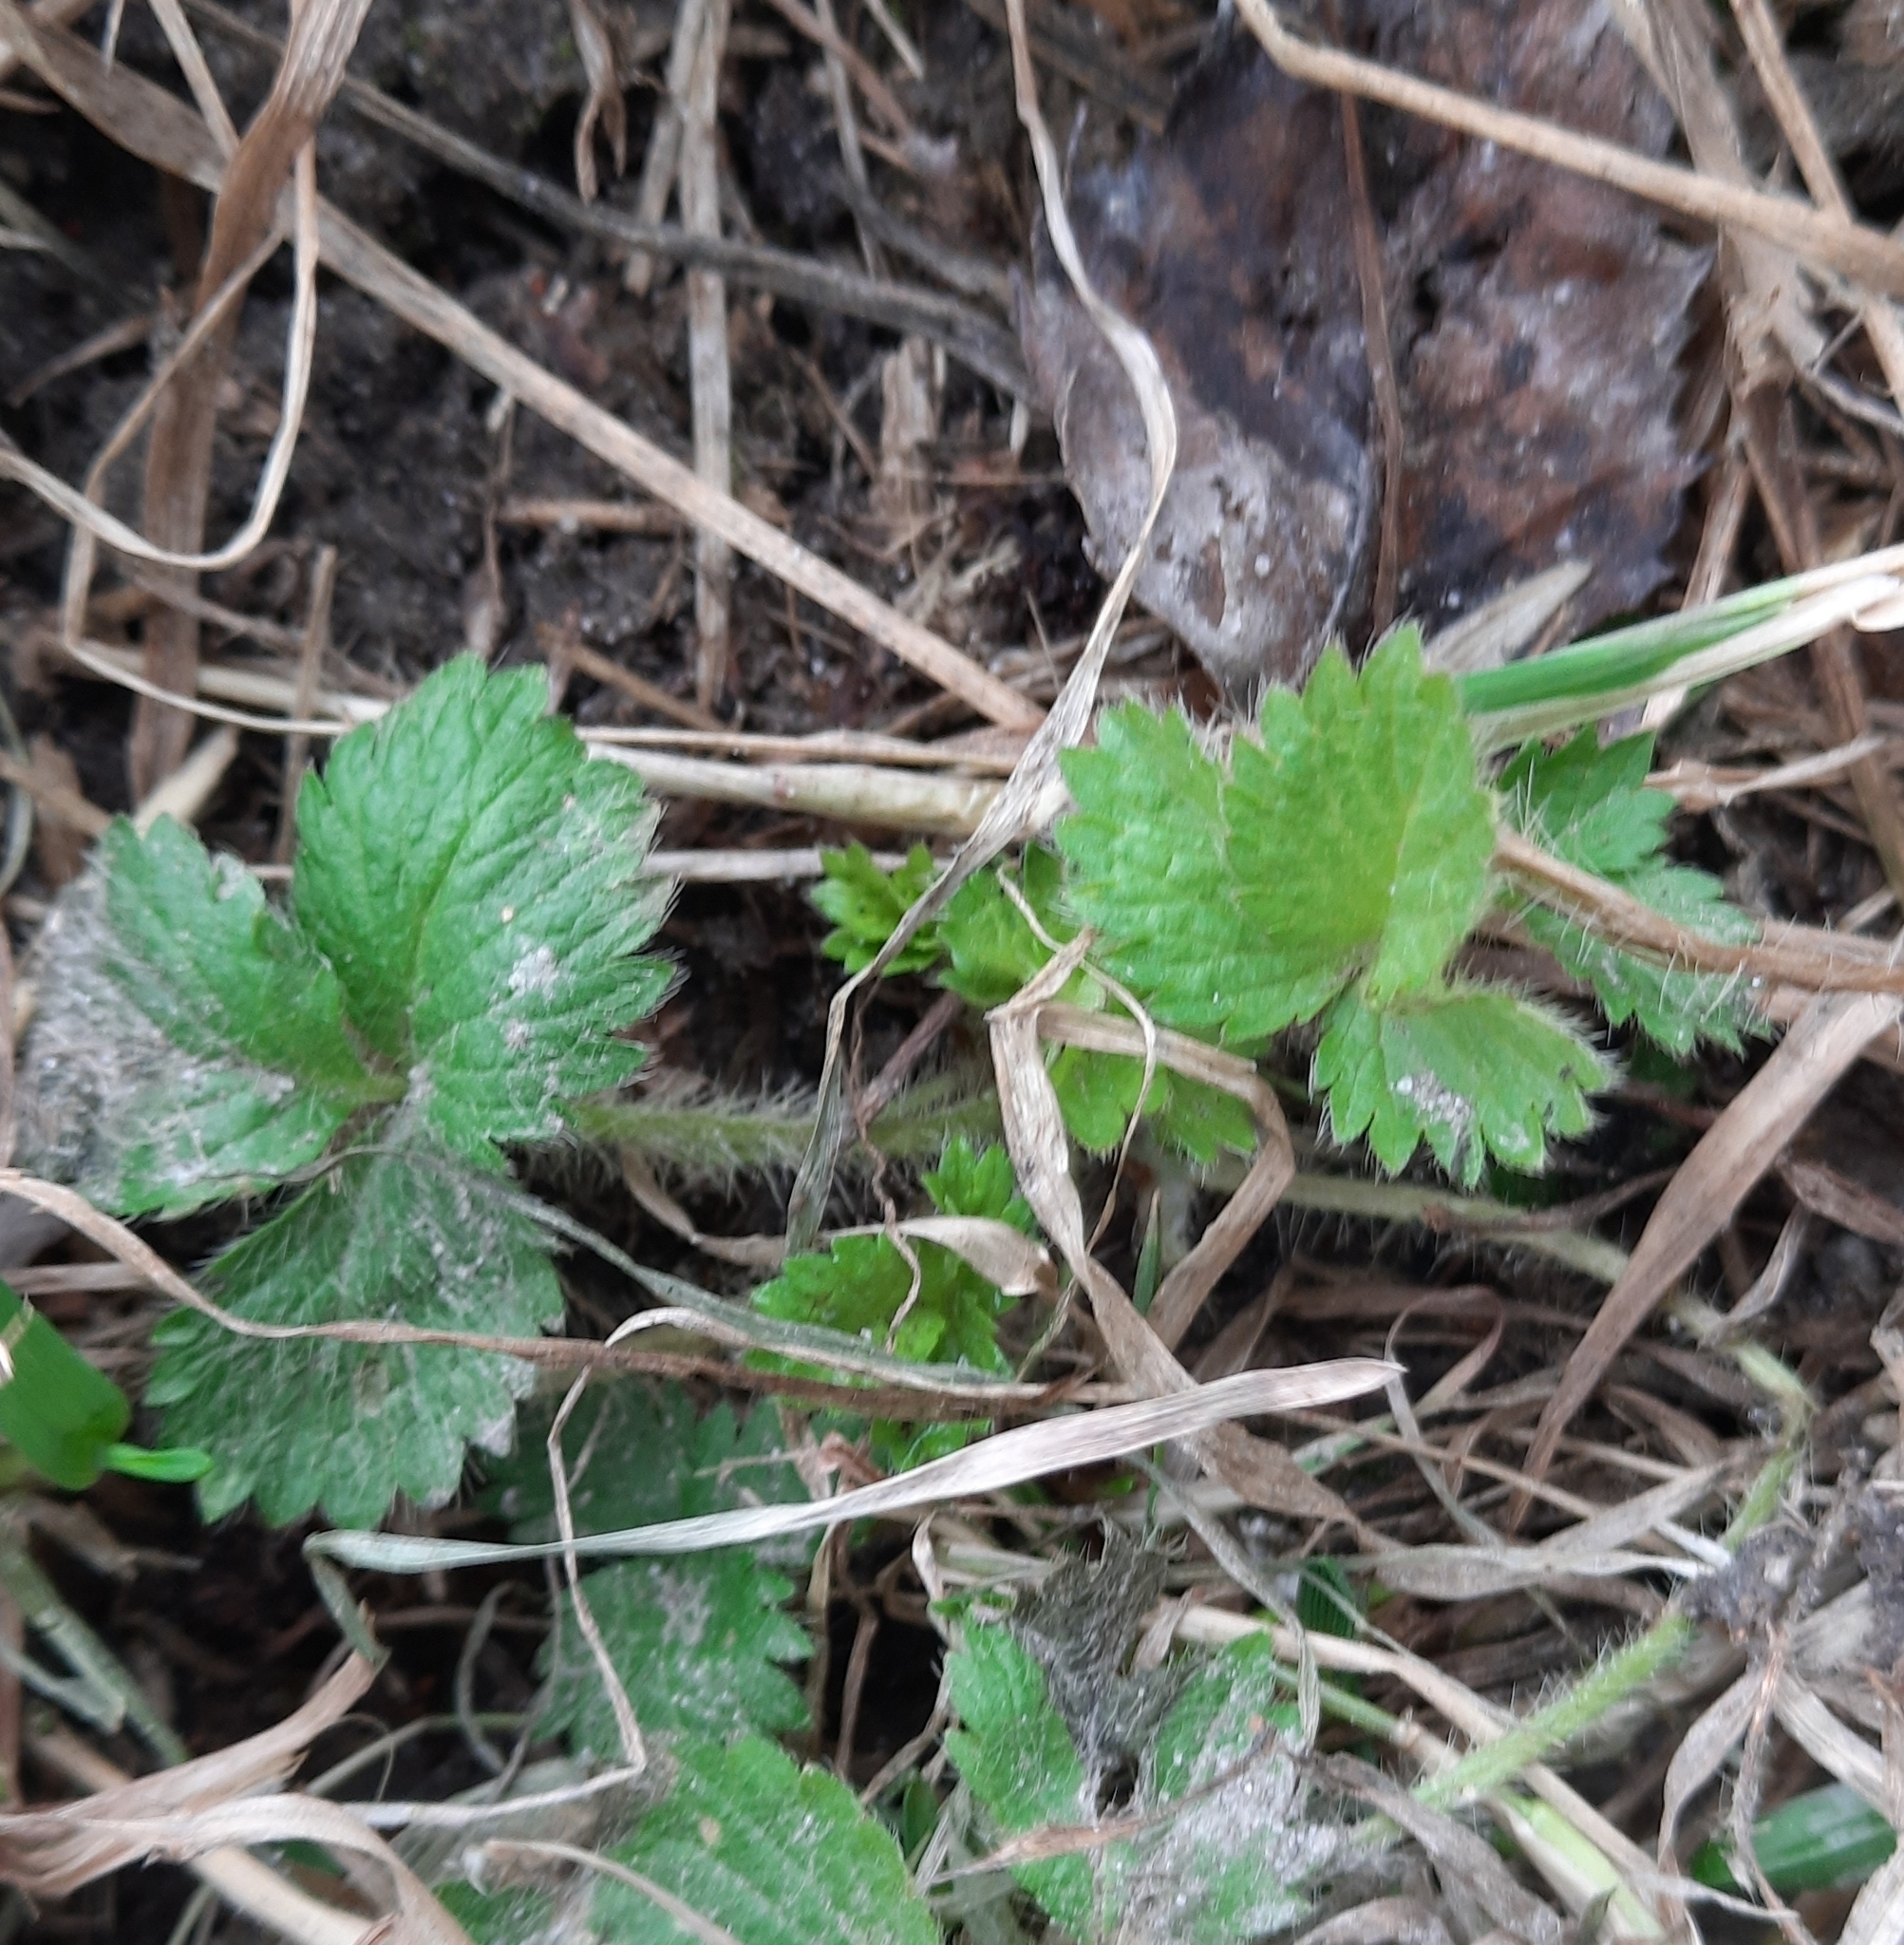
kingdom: Plantae
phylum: Tracheophyta
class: Magnoliopsida
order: Rosales
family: Rosaceae
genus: Potentilla
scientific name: Potentilla norvegica
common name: Ternate-leaved cinquefoil
